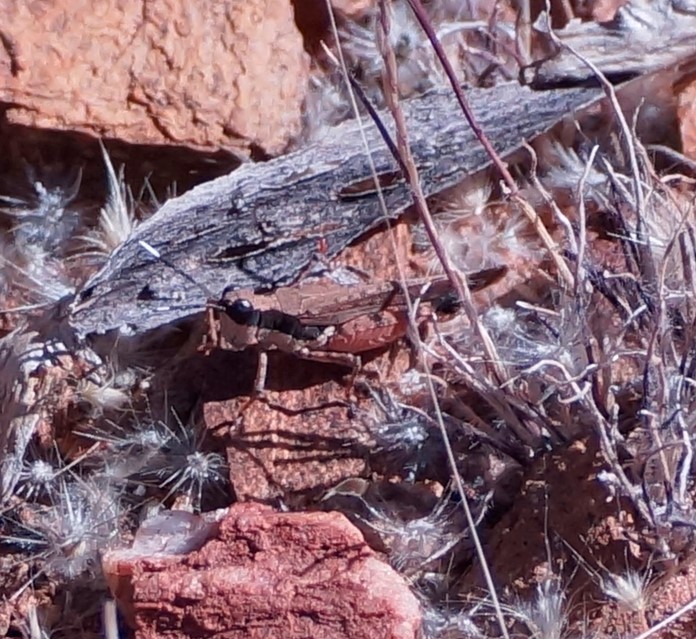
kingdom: Animalia
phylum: Arthropoda
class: Insecta
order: Orthoptera
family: Acrididae
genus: Perbellia
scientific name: Perbellia picta
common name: White-tipped perbellia
